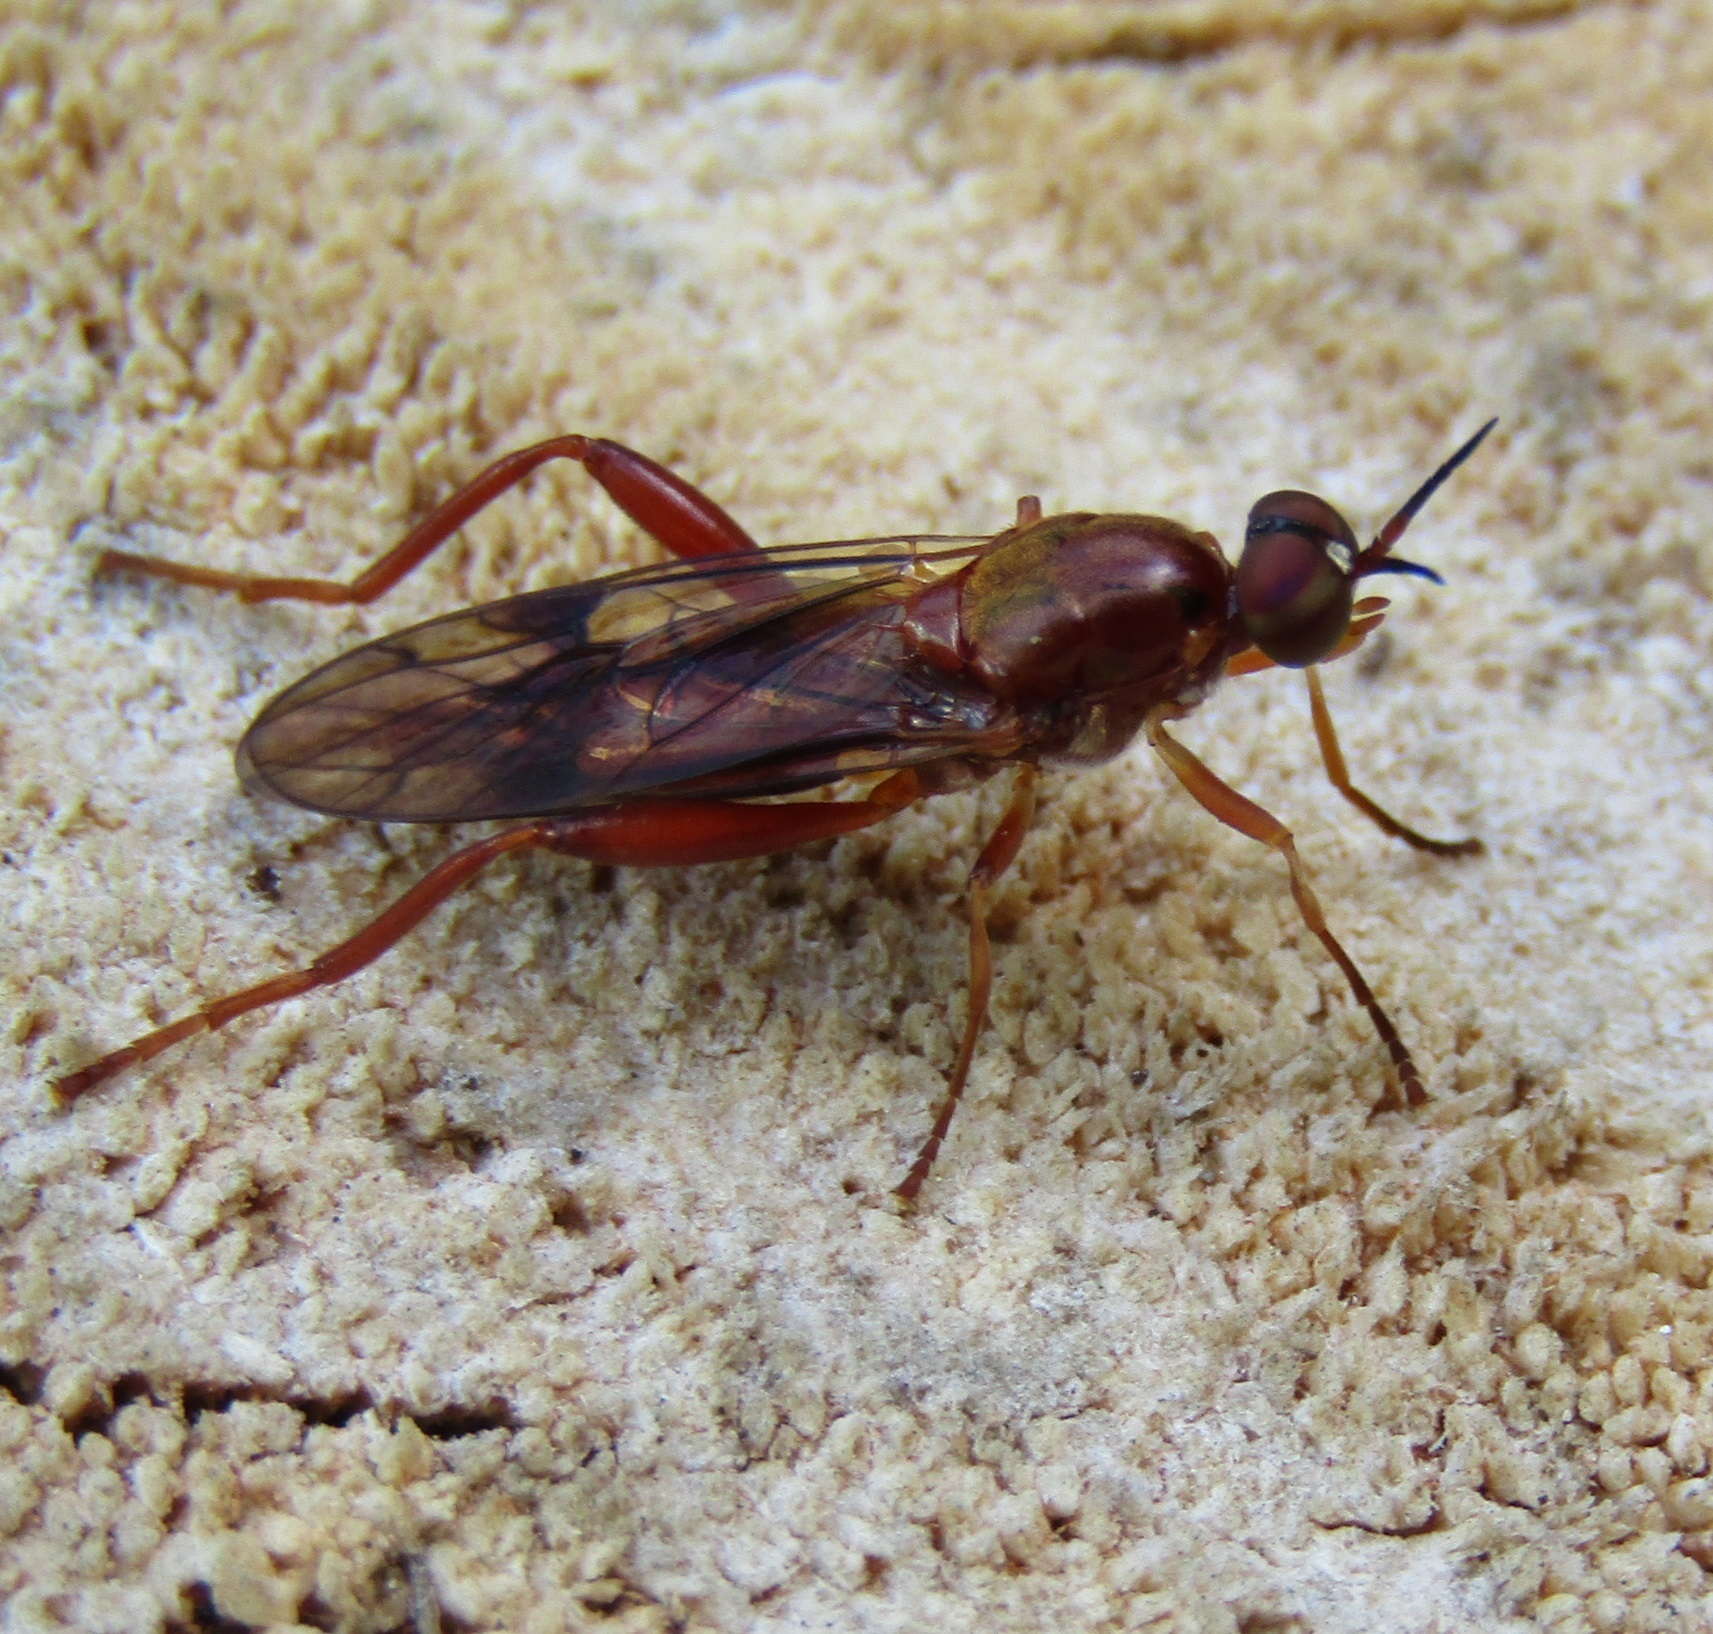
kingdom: Animalia
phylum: Arthropoda
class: Insecta
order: Diptera
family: Stratiomyidae
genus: Benhamyia
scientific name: Benhamyia straznitzkii
